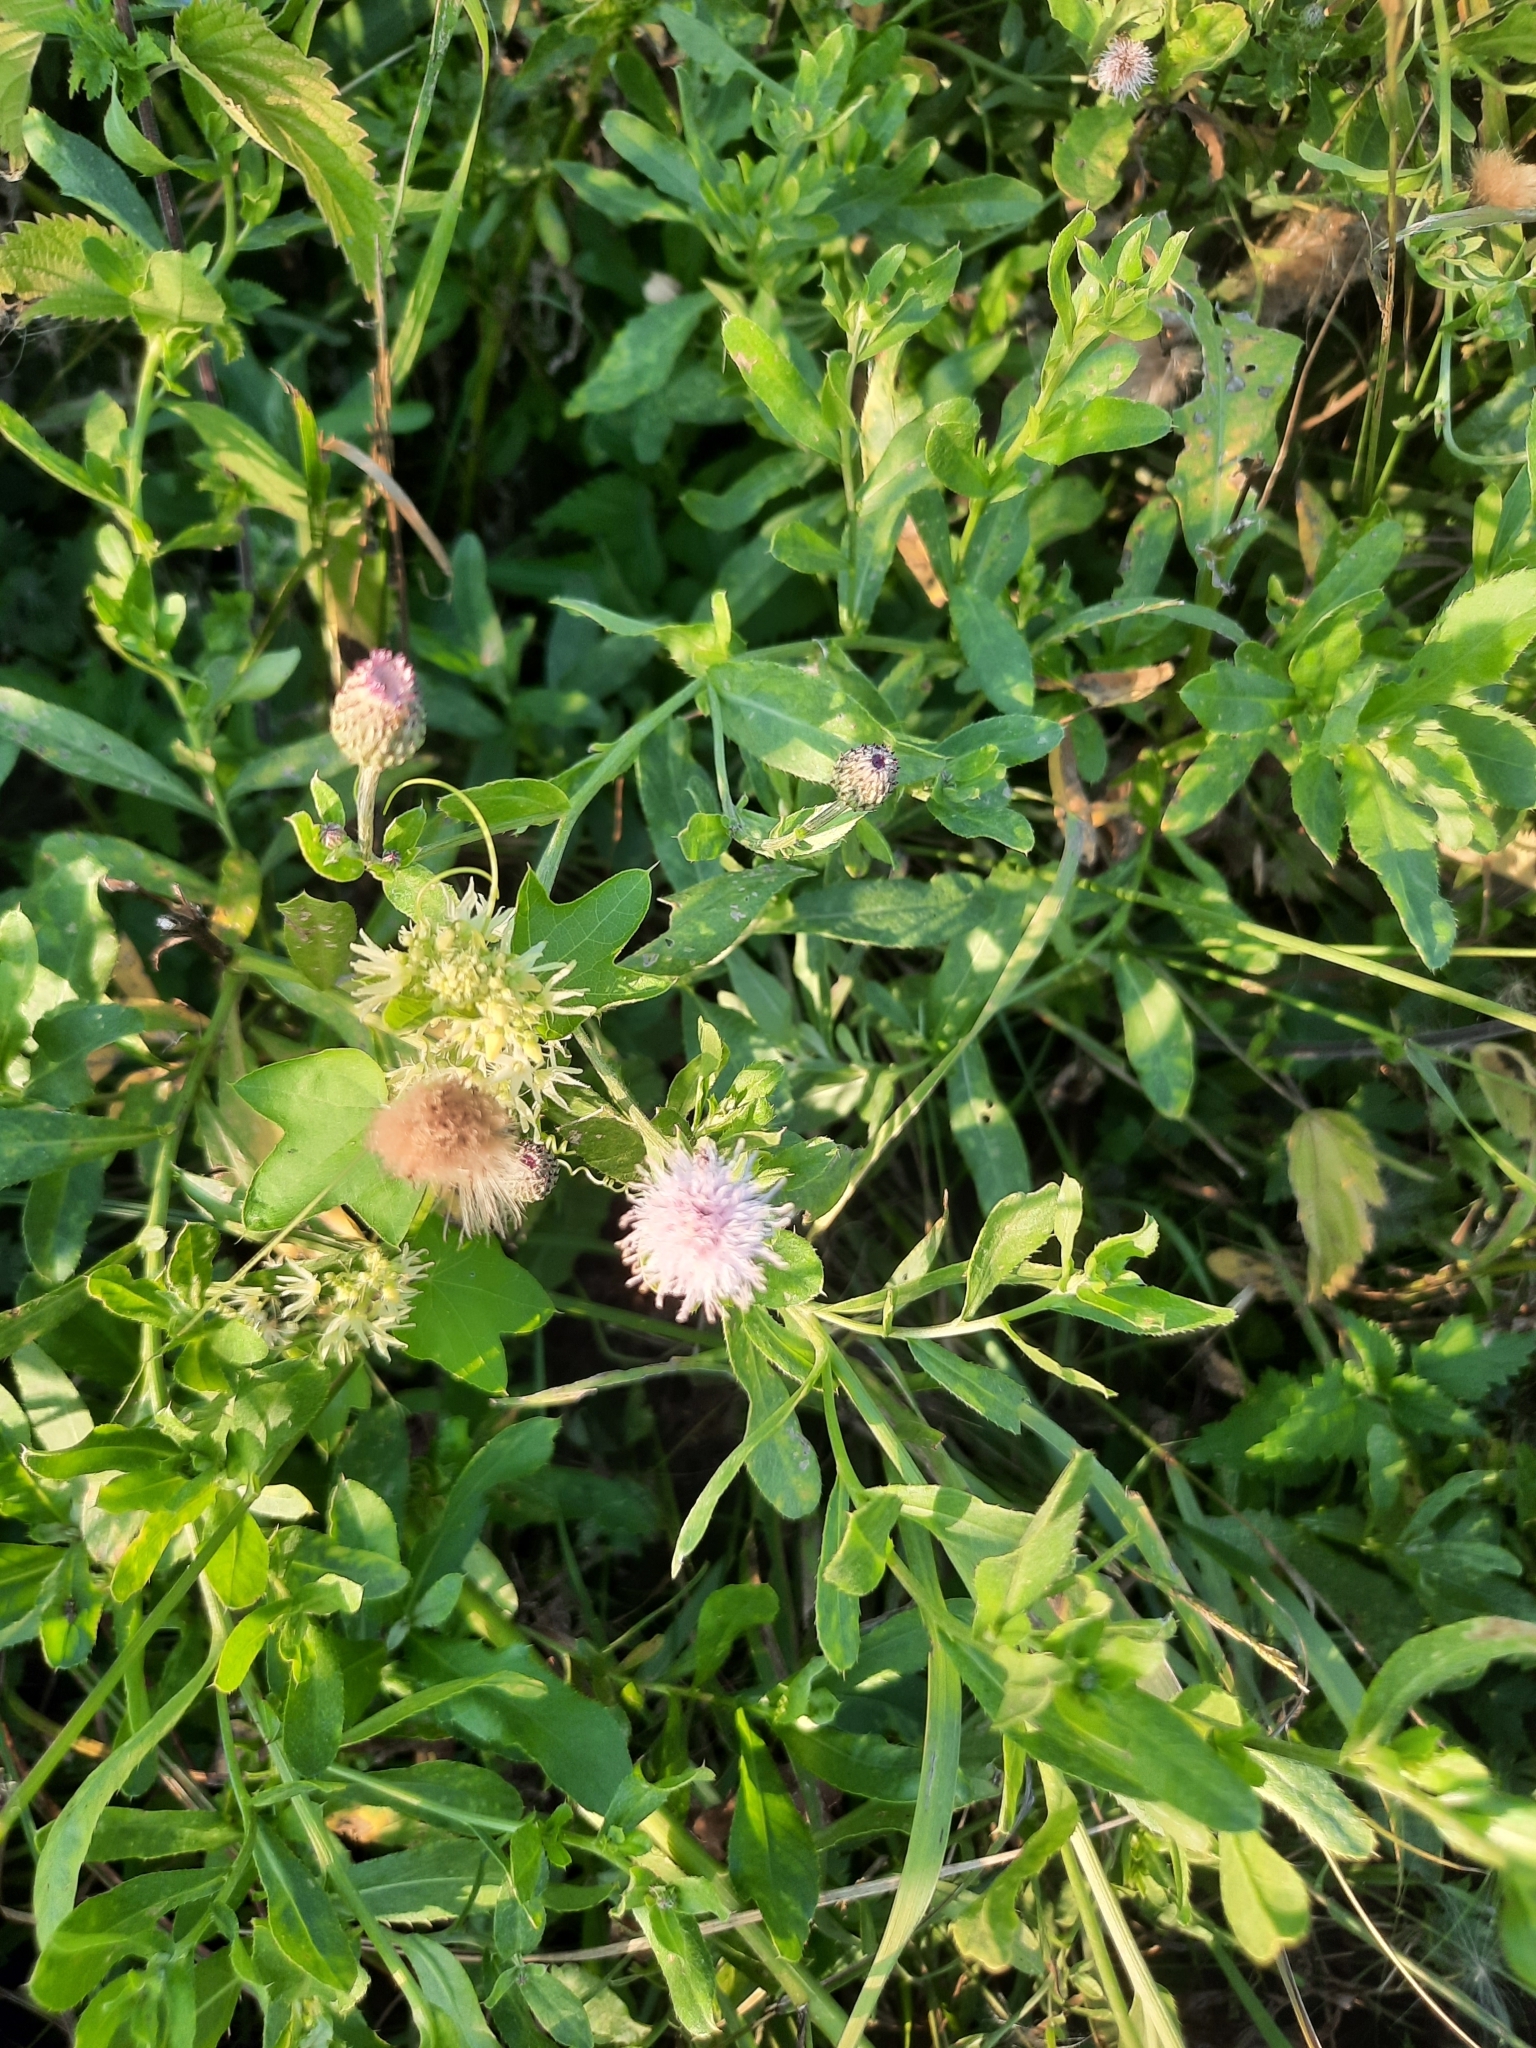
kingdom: Plantae
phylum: Tracheophyta
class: Magnoliopsida
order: Asterales
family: Asteraceae
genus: Cirsium
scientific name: Cirsium arvense
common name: Creeping thistle
